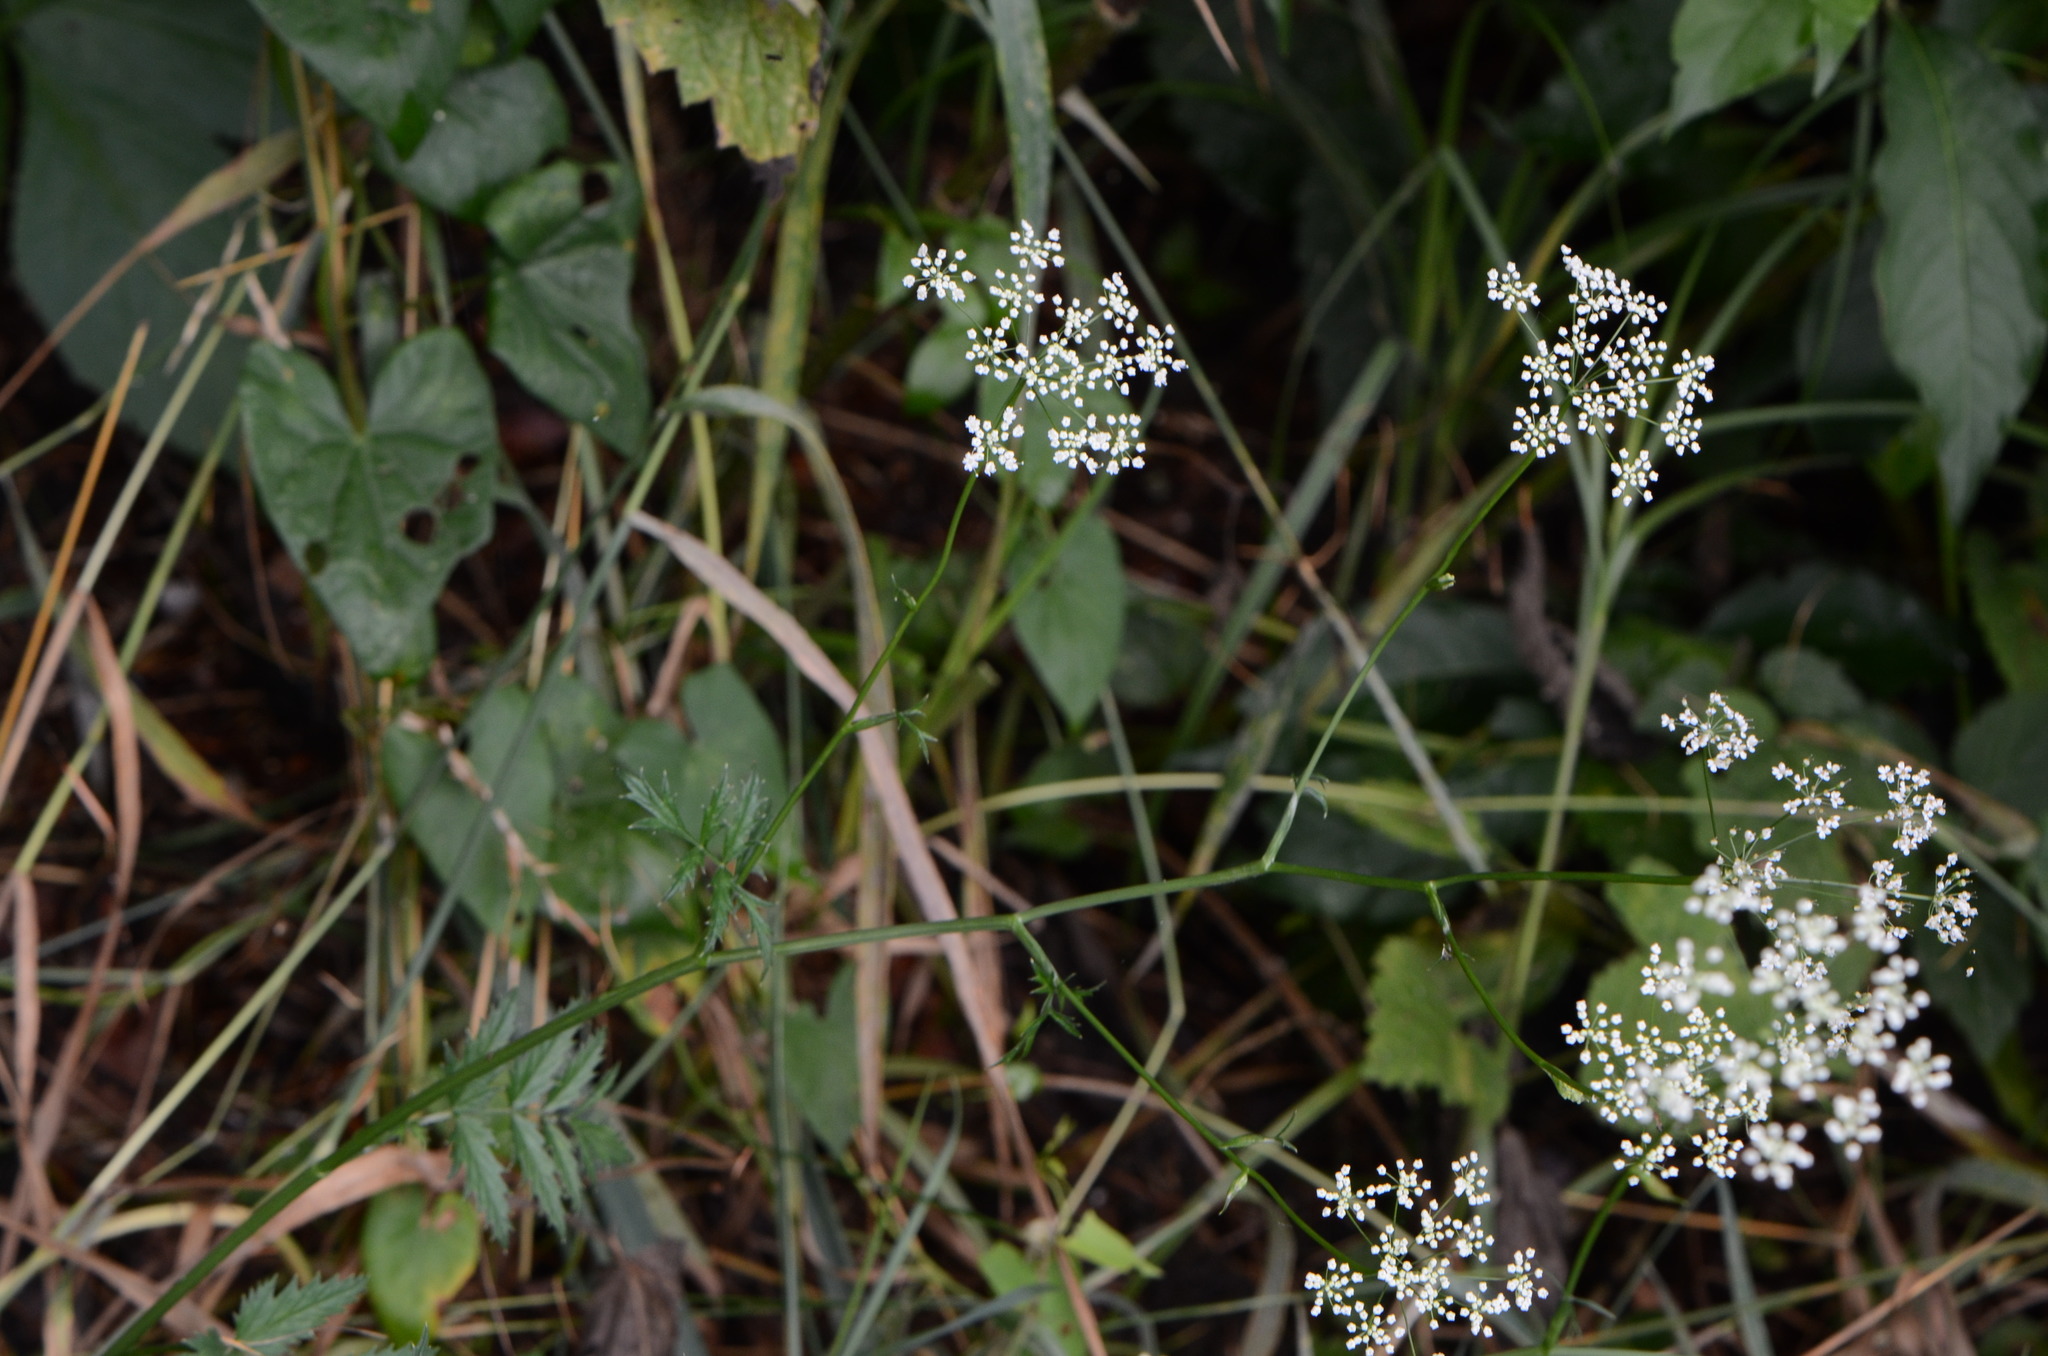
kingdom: Plantae
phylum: Tracheophyta
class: Magnoliopsida
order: Apiales
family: Apiaceae
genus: Pimpinella
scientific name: Pimpinella major
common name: Greater burnet-saxifrage
